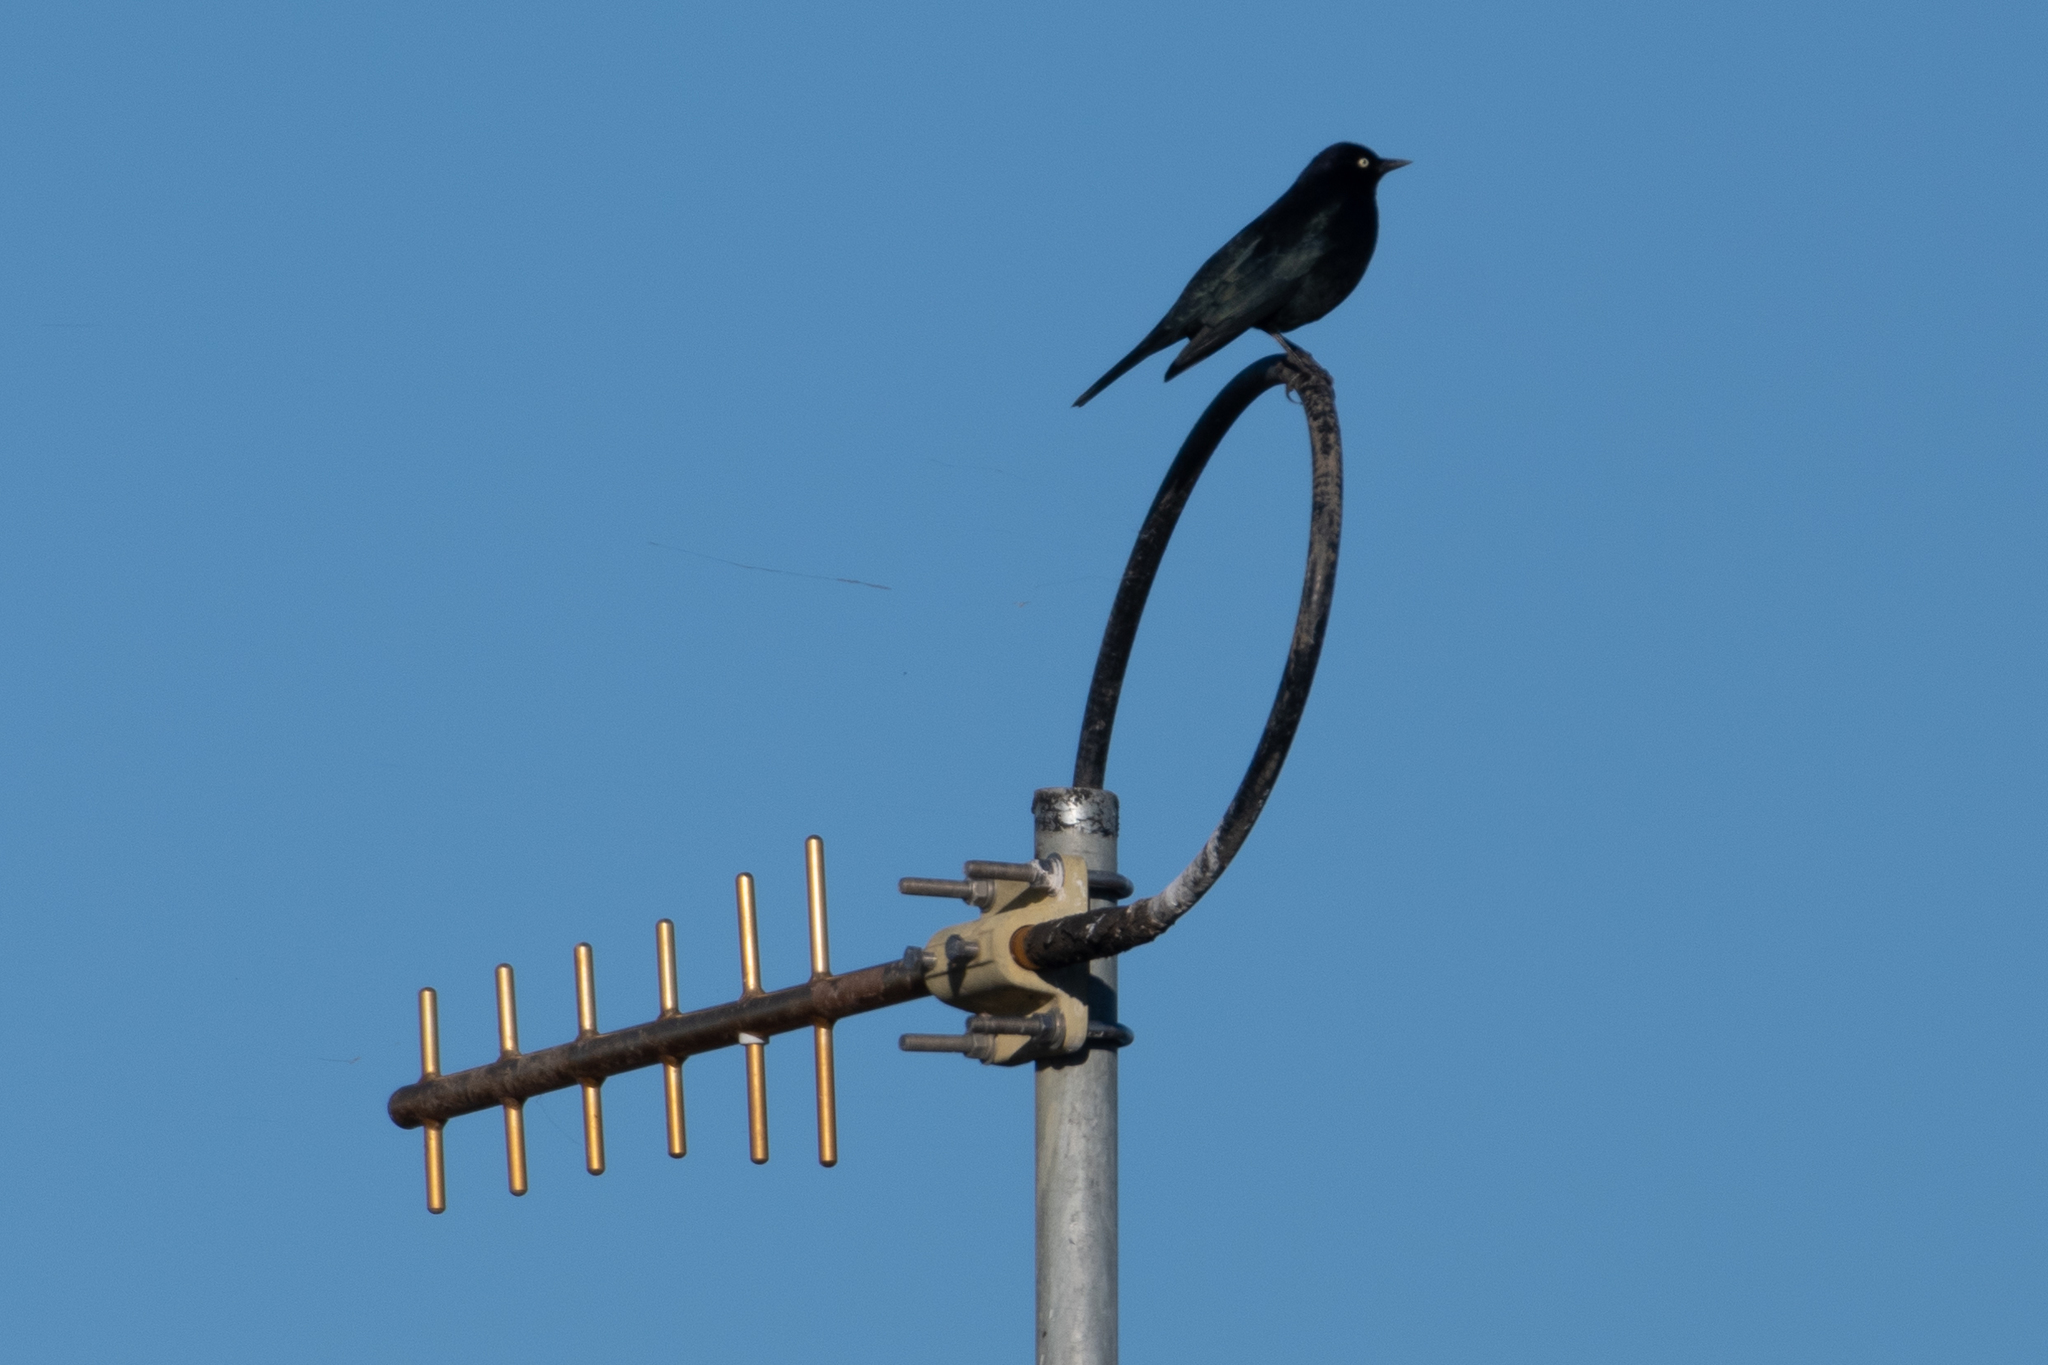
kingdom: Animalia
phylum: Chordata
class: Aves
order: Passeriformes
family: Icteridae
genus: Euphagus
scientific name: Euphagus cyanocephalus
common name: Brewer's blackbird
